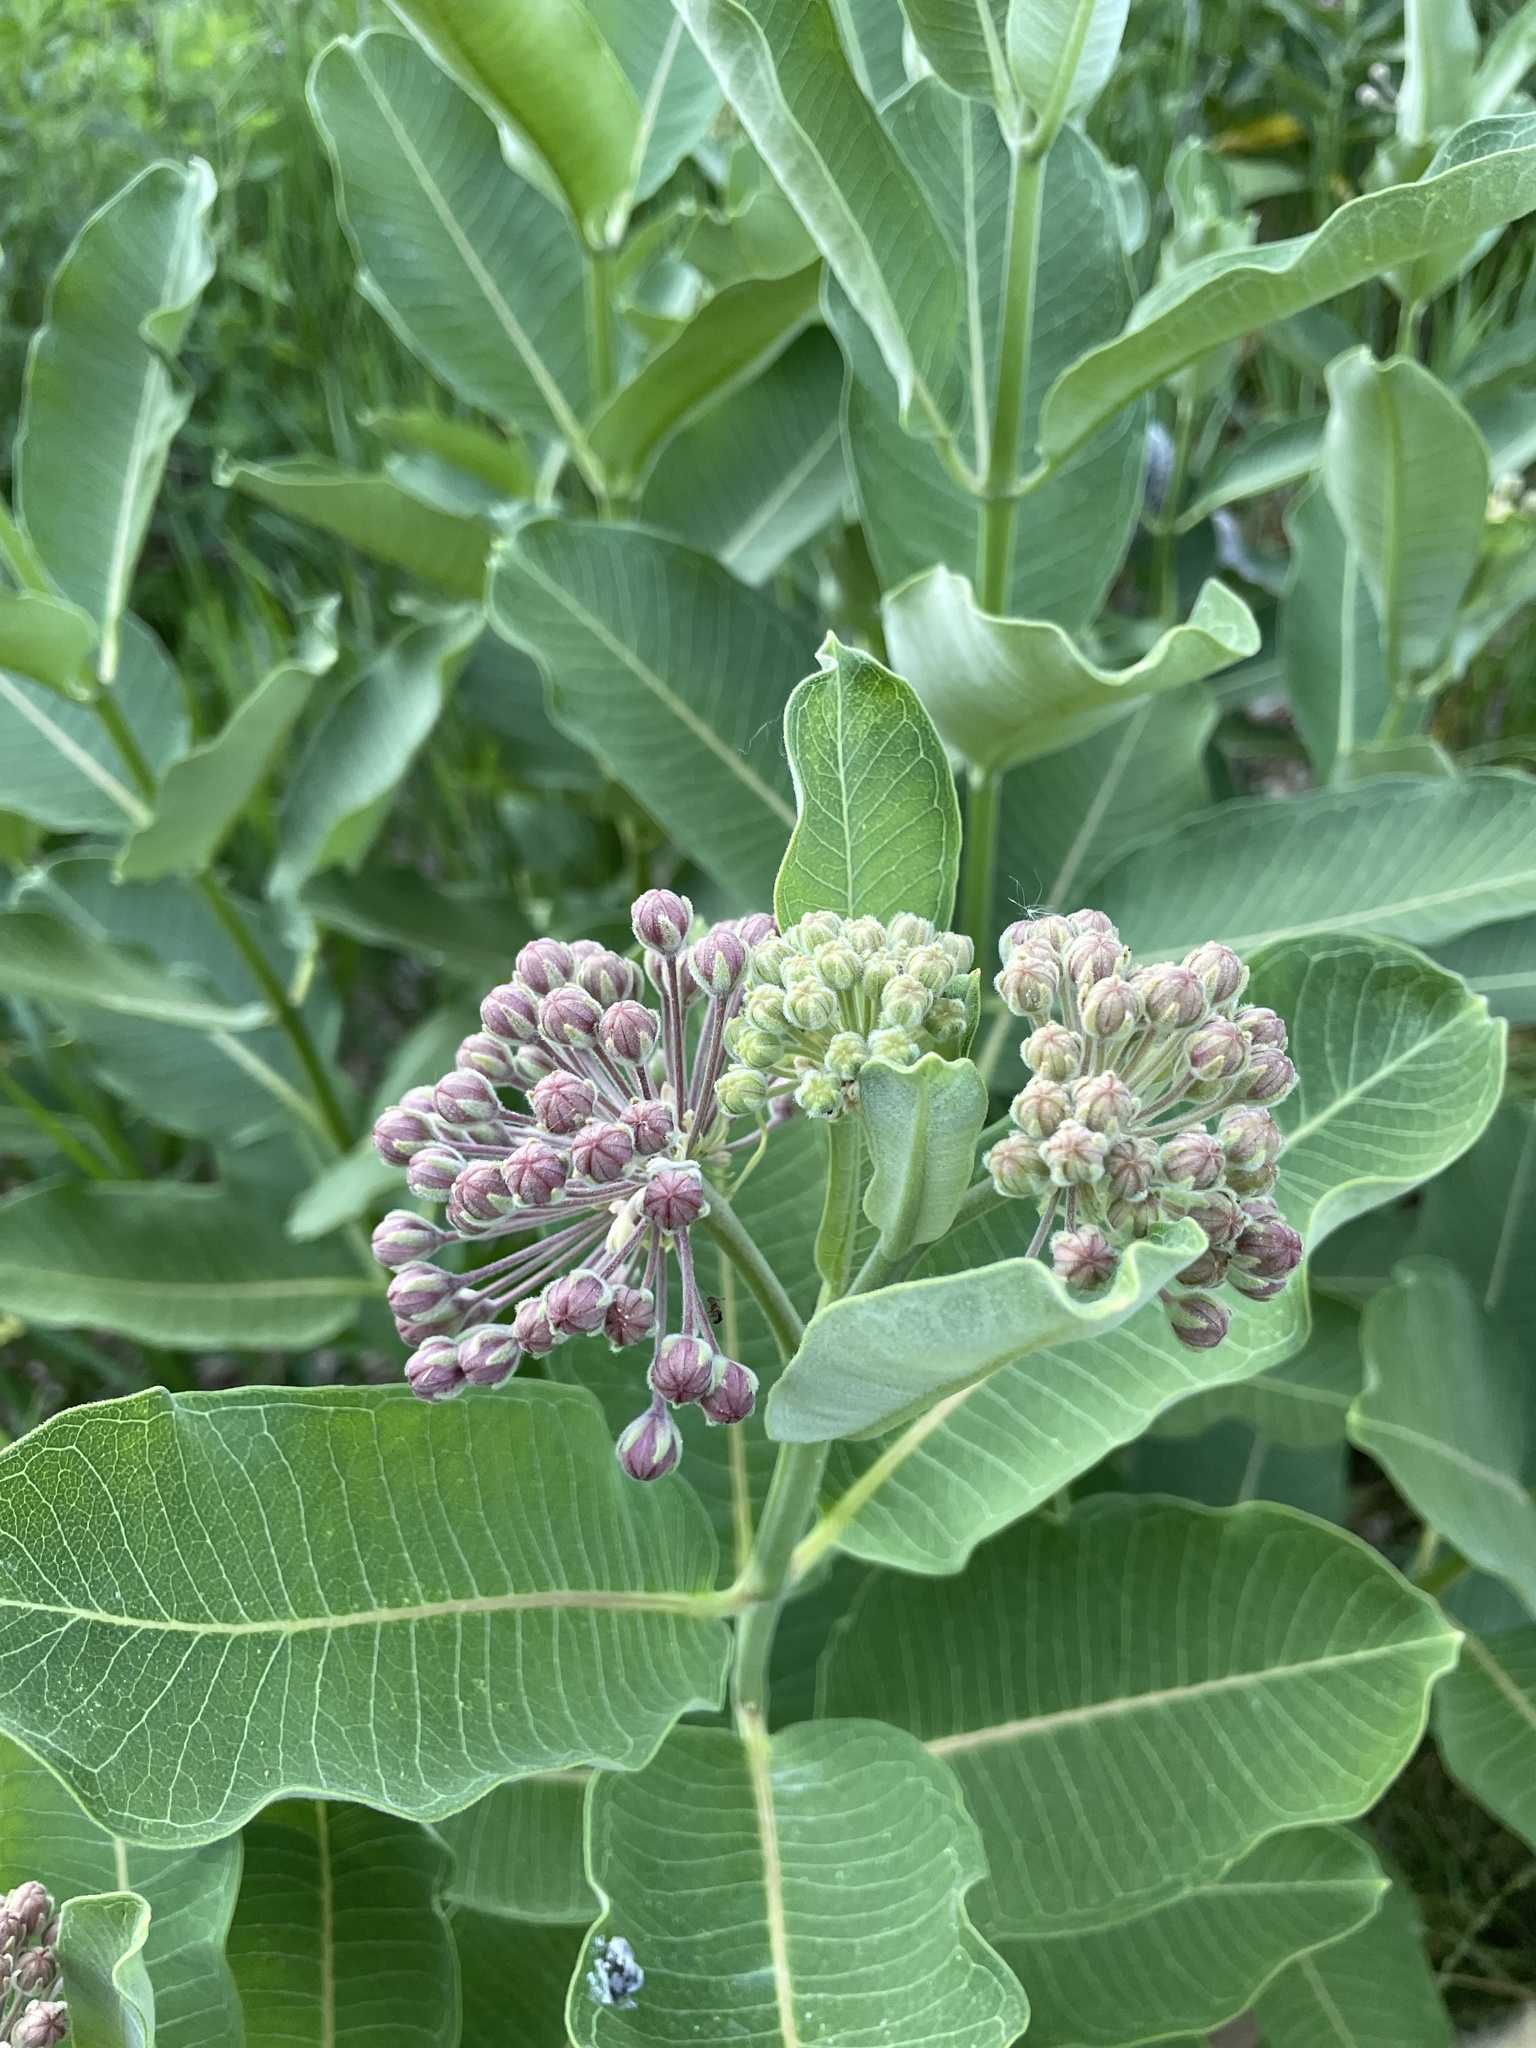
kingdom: Plantae
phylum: Tracheophyta
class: Magnoliopsida
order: Gentianales
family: Apocynaceae
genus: Asclepias
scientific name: Asclepias syriaca
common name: Common milkweed
